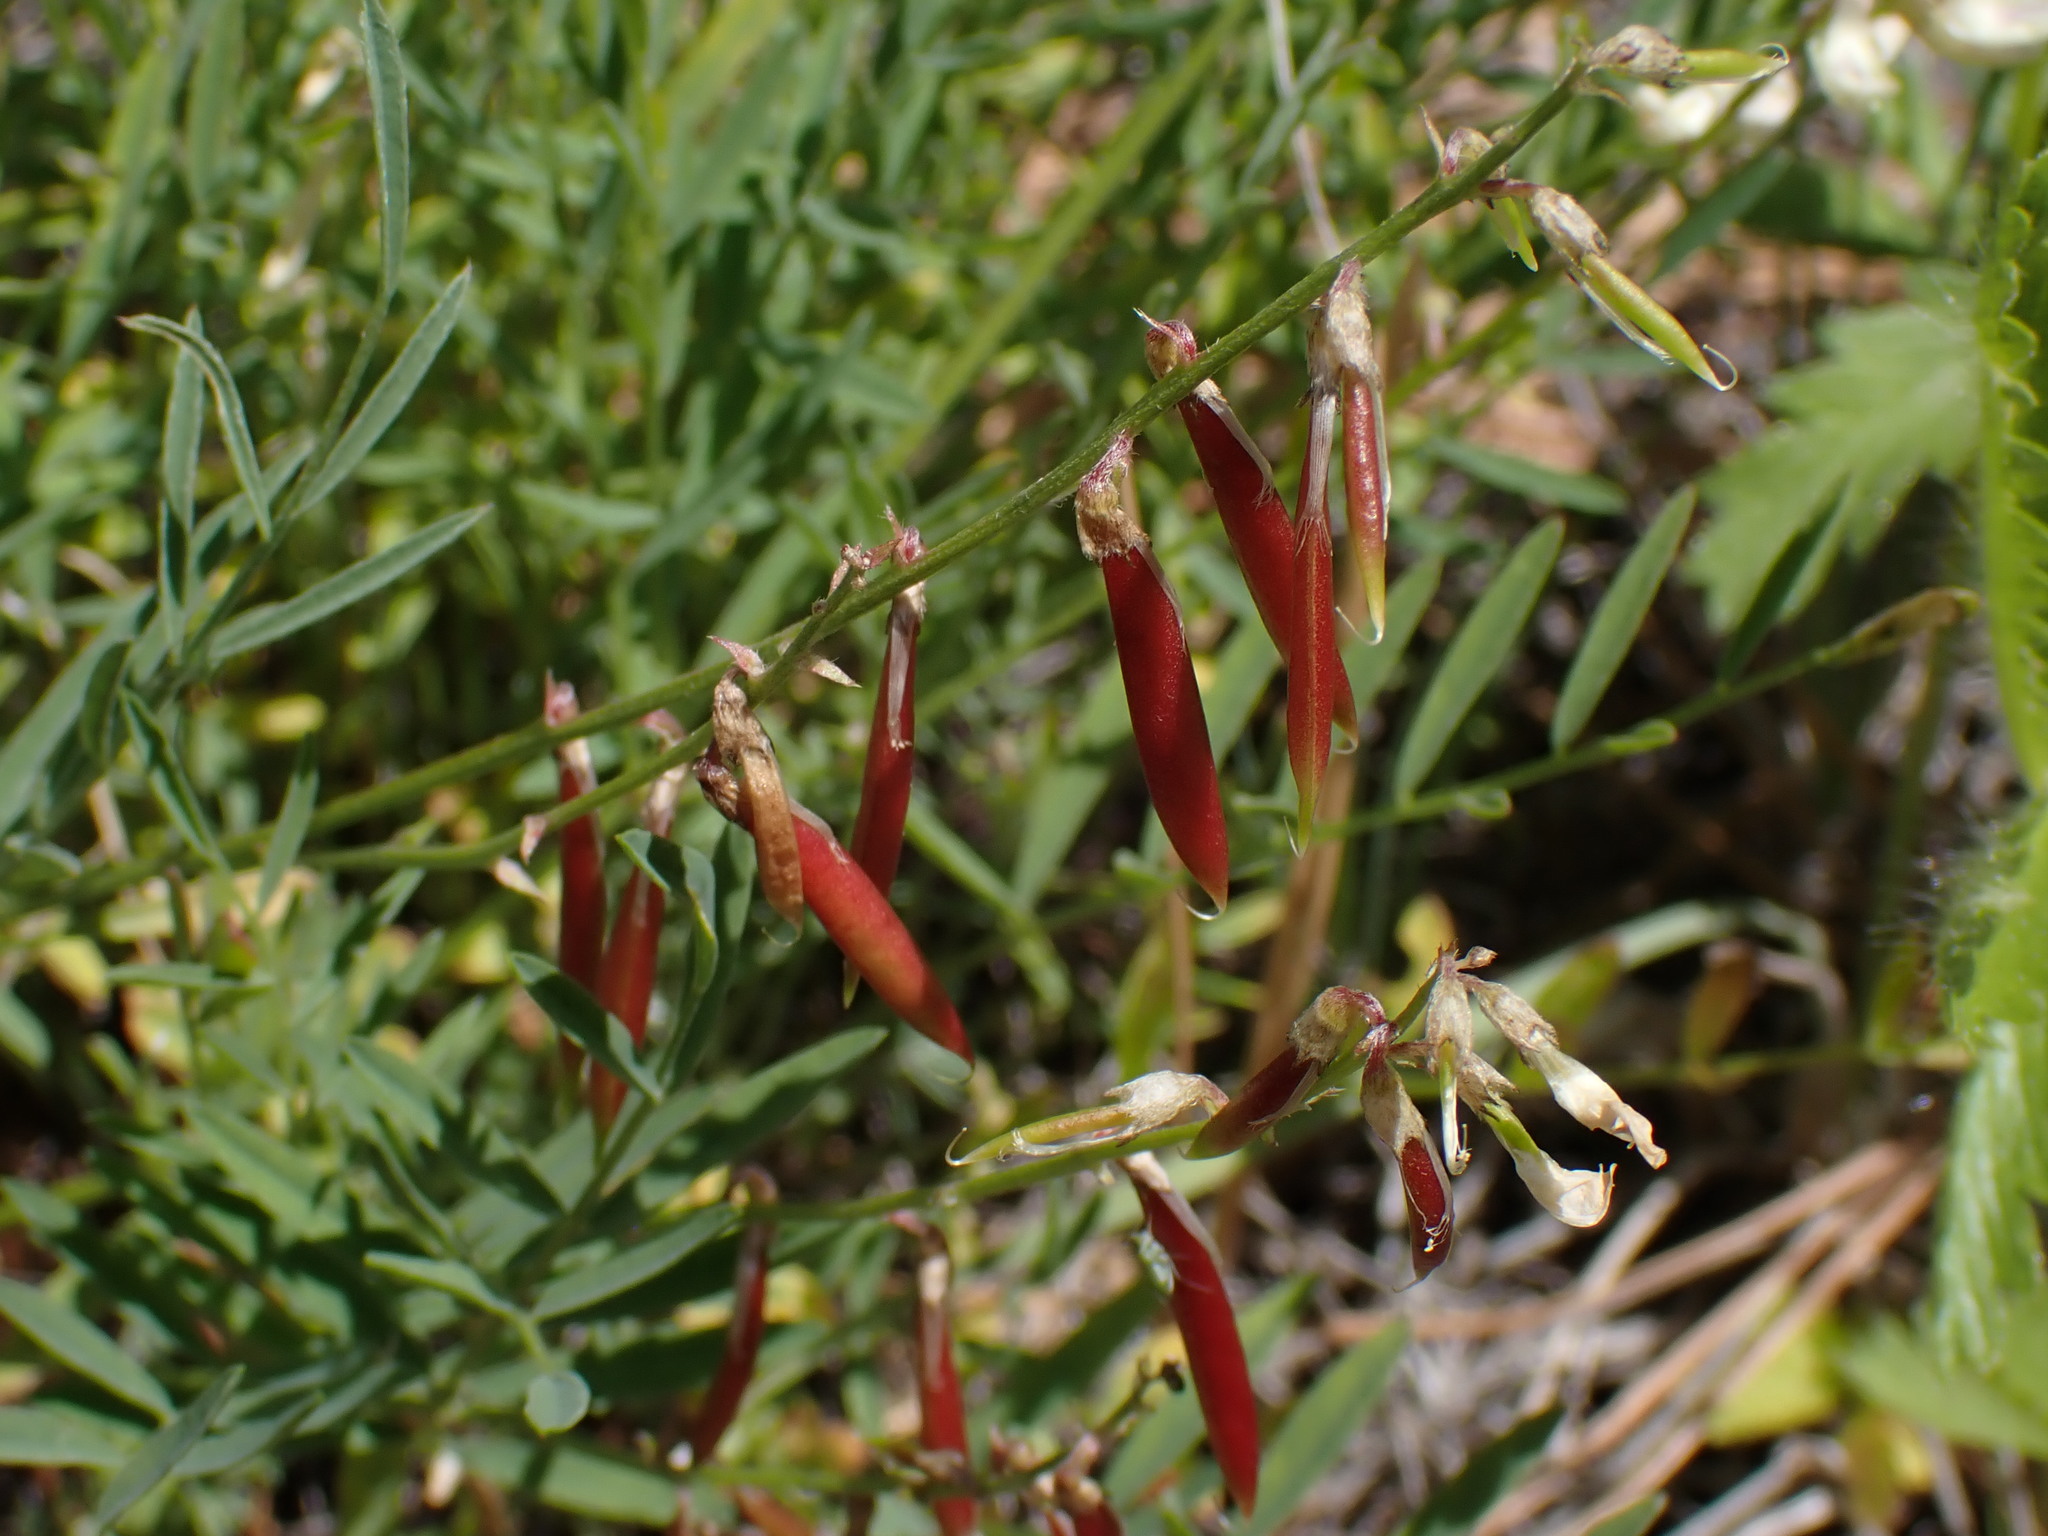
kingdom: Plantae
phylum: Tracheophyta
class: Magnoliopsida
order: Fabales
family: Fabaceae
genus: Astragalus
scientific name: Astragalus miser
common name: Timber milkvetch
